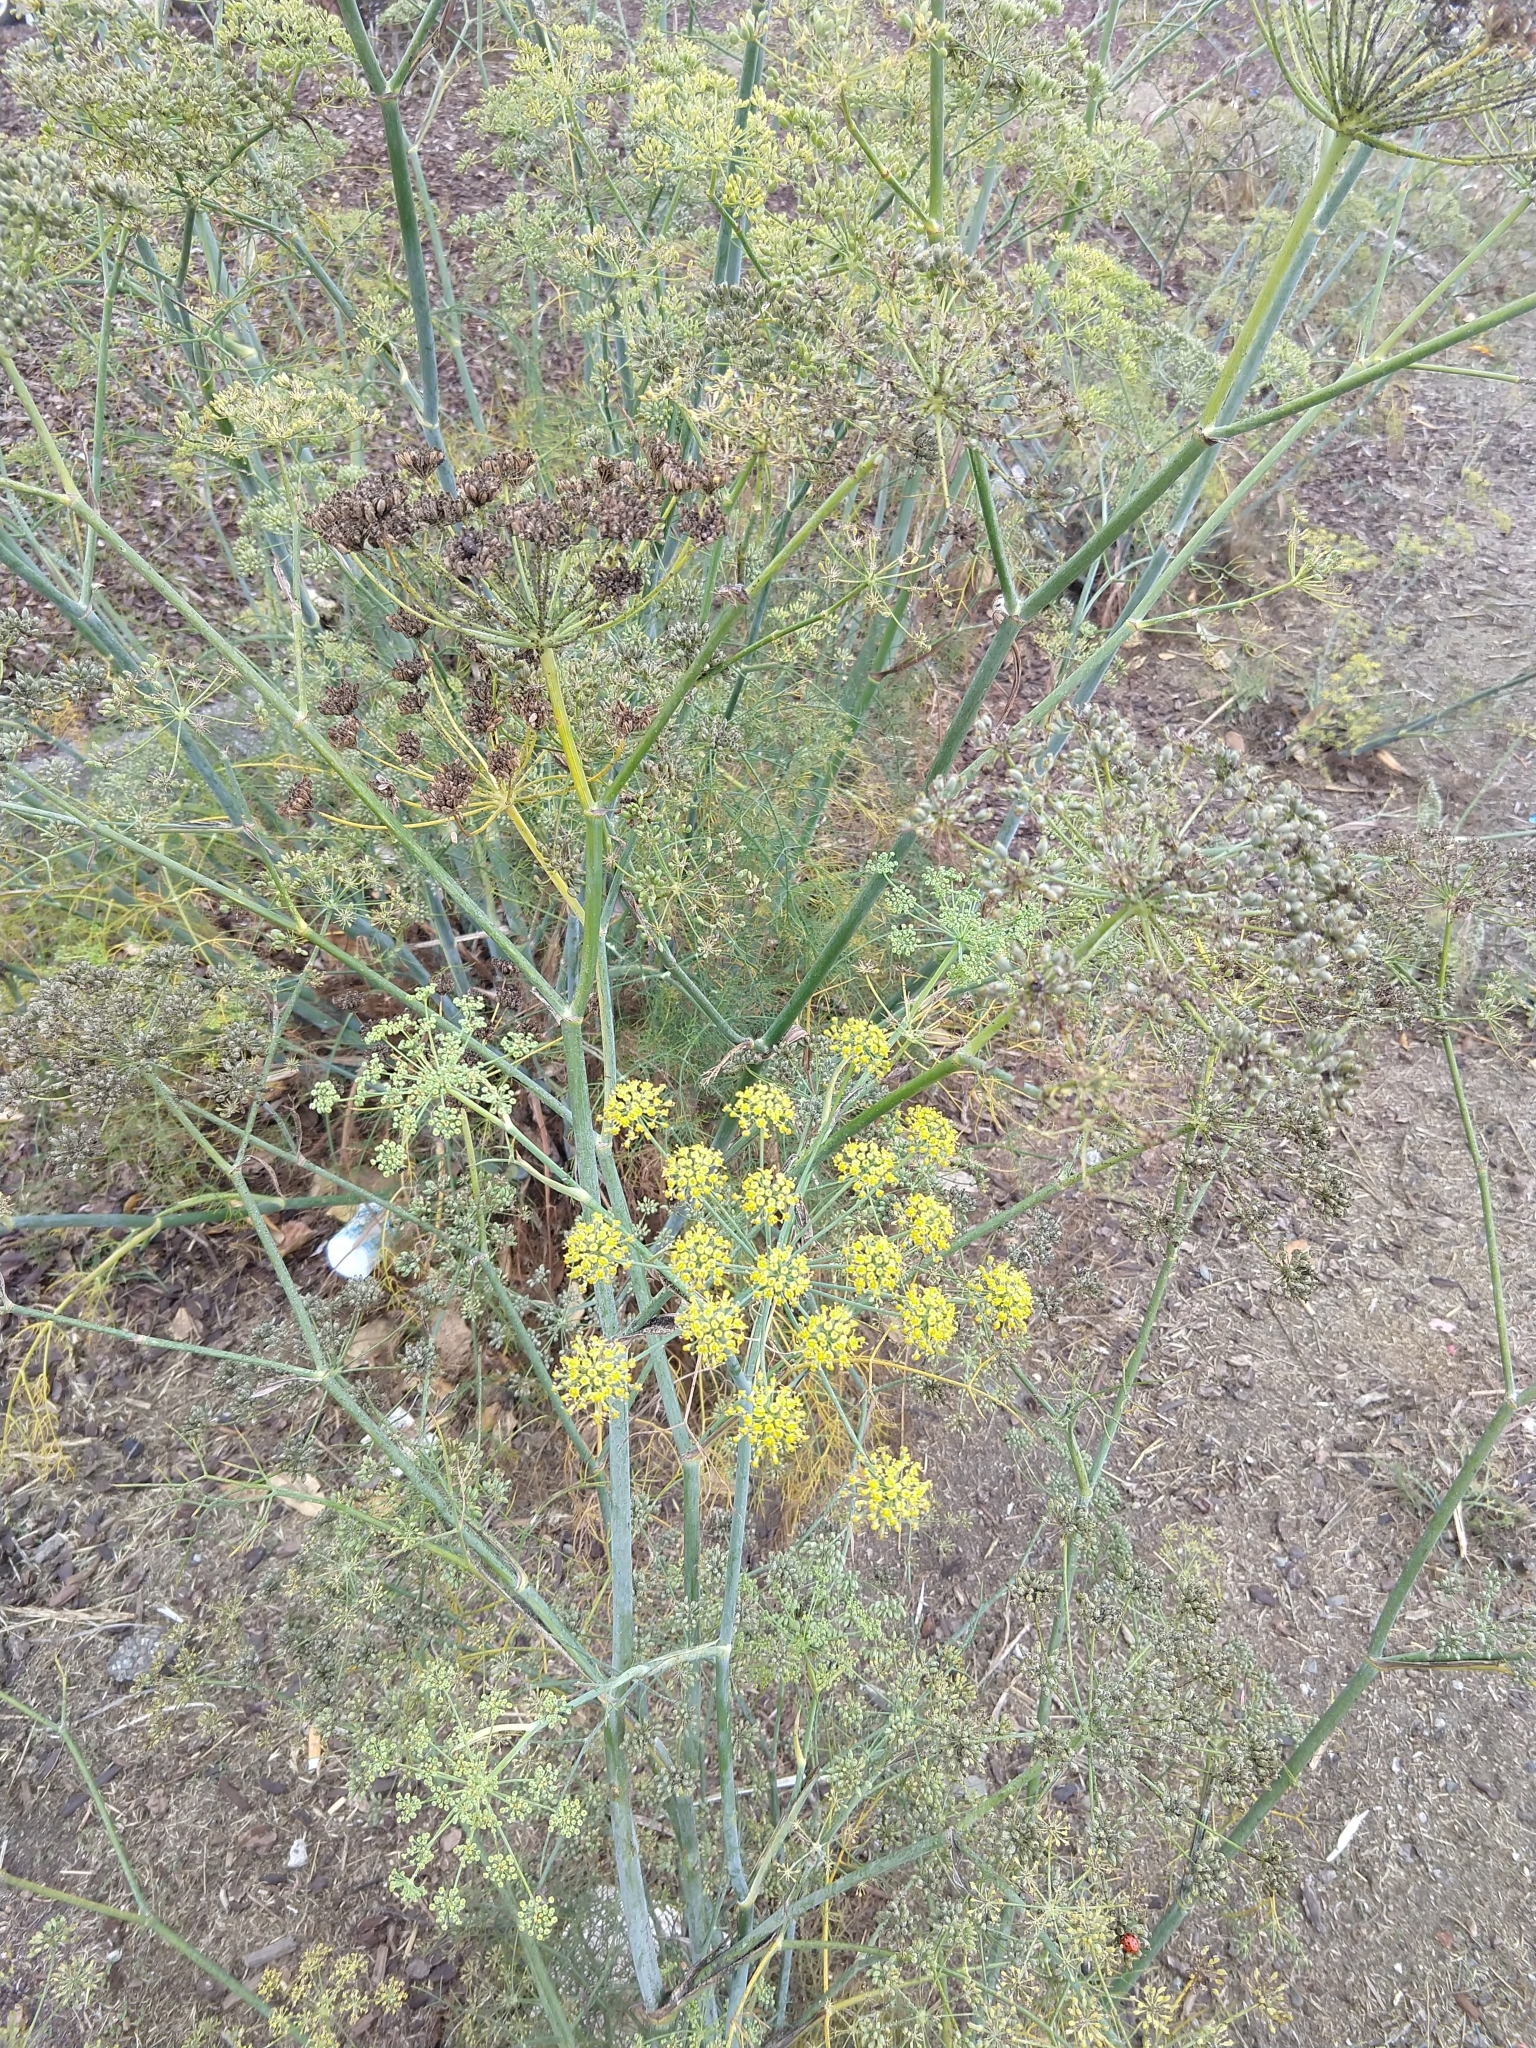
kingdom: Plantae
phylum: Tracheophyta
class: Magnoliopsida
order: Apiales
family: Apiaceae
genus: Foeniculum
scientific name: Foeniculum vulgare
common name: Fennel
